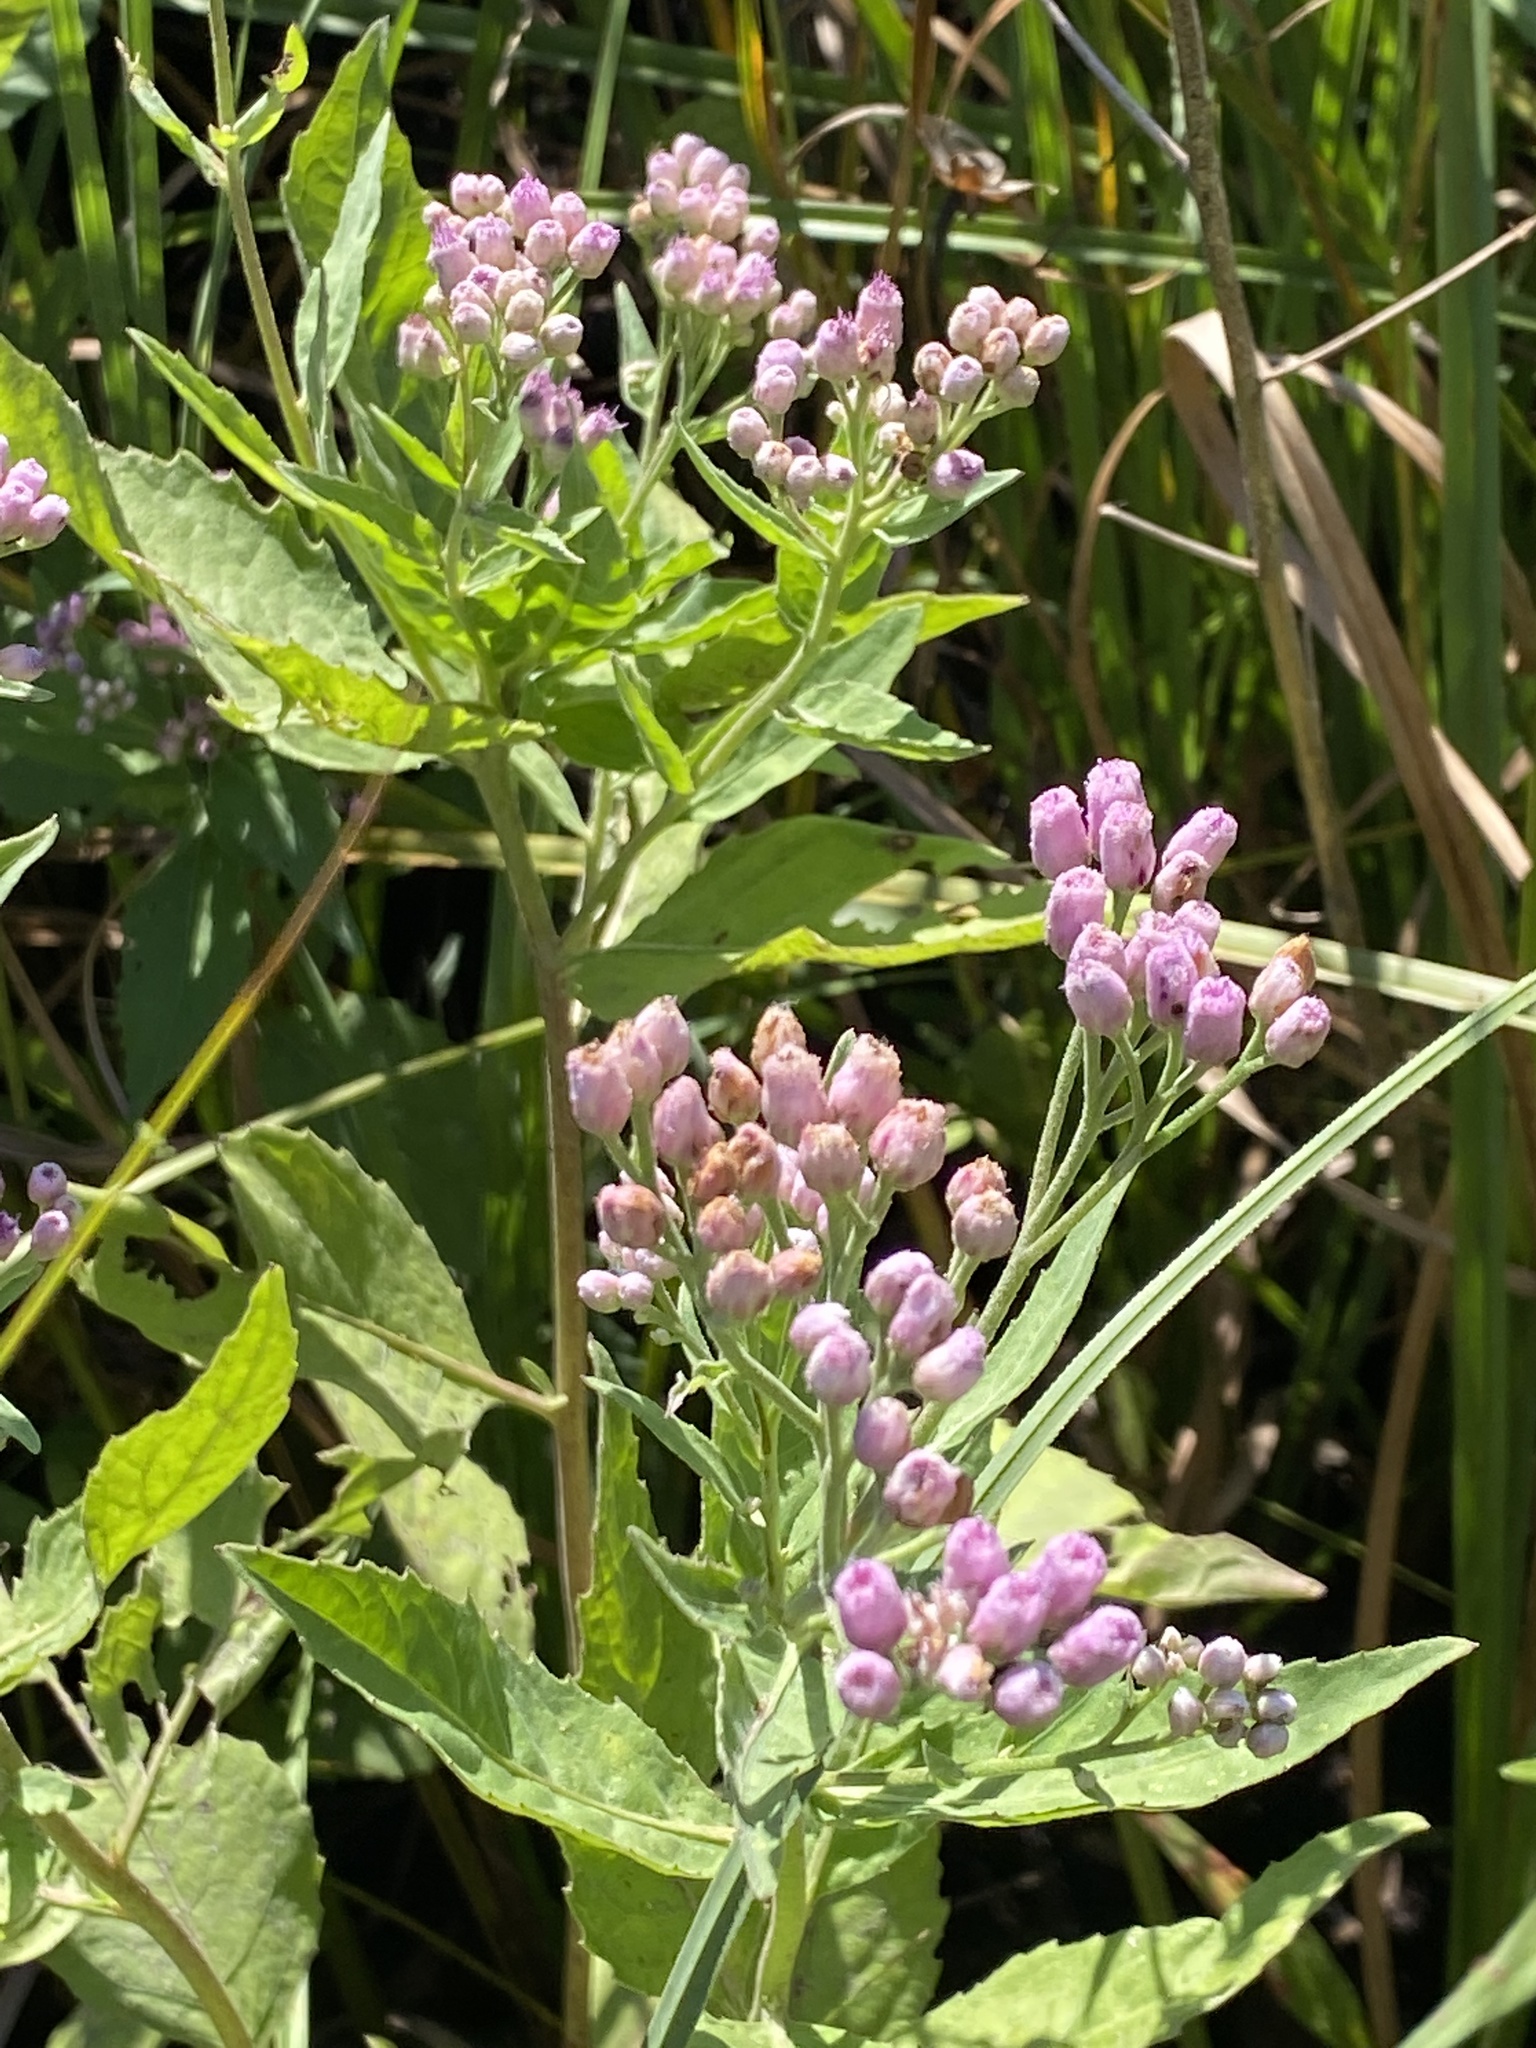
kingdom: Plantae
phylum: Tracheophyta
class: Magnoliopsida
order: Asterales
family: Asteraceae
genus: Pluchea
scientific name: Pluchea odorata
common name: Saltmarsh fleabane
